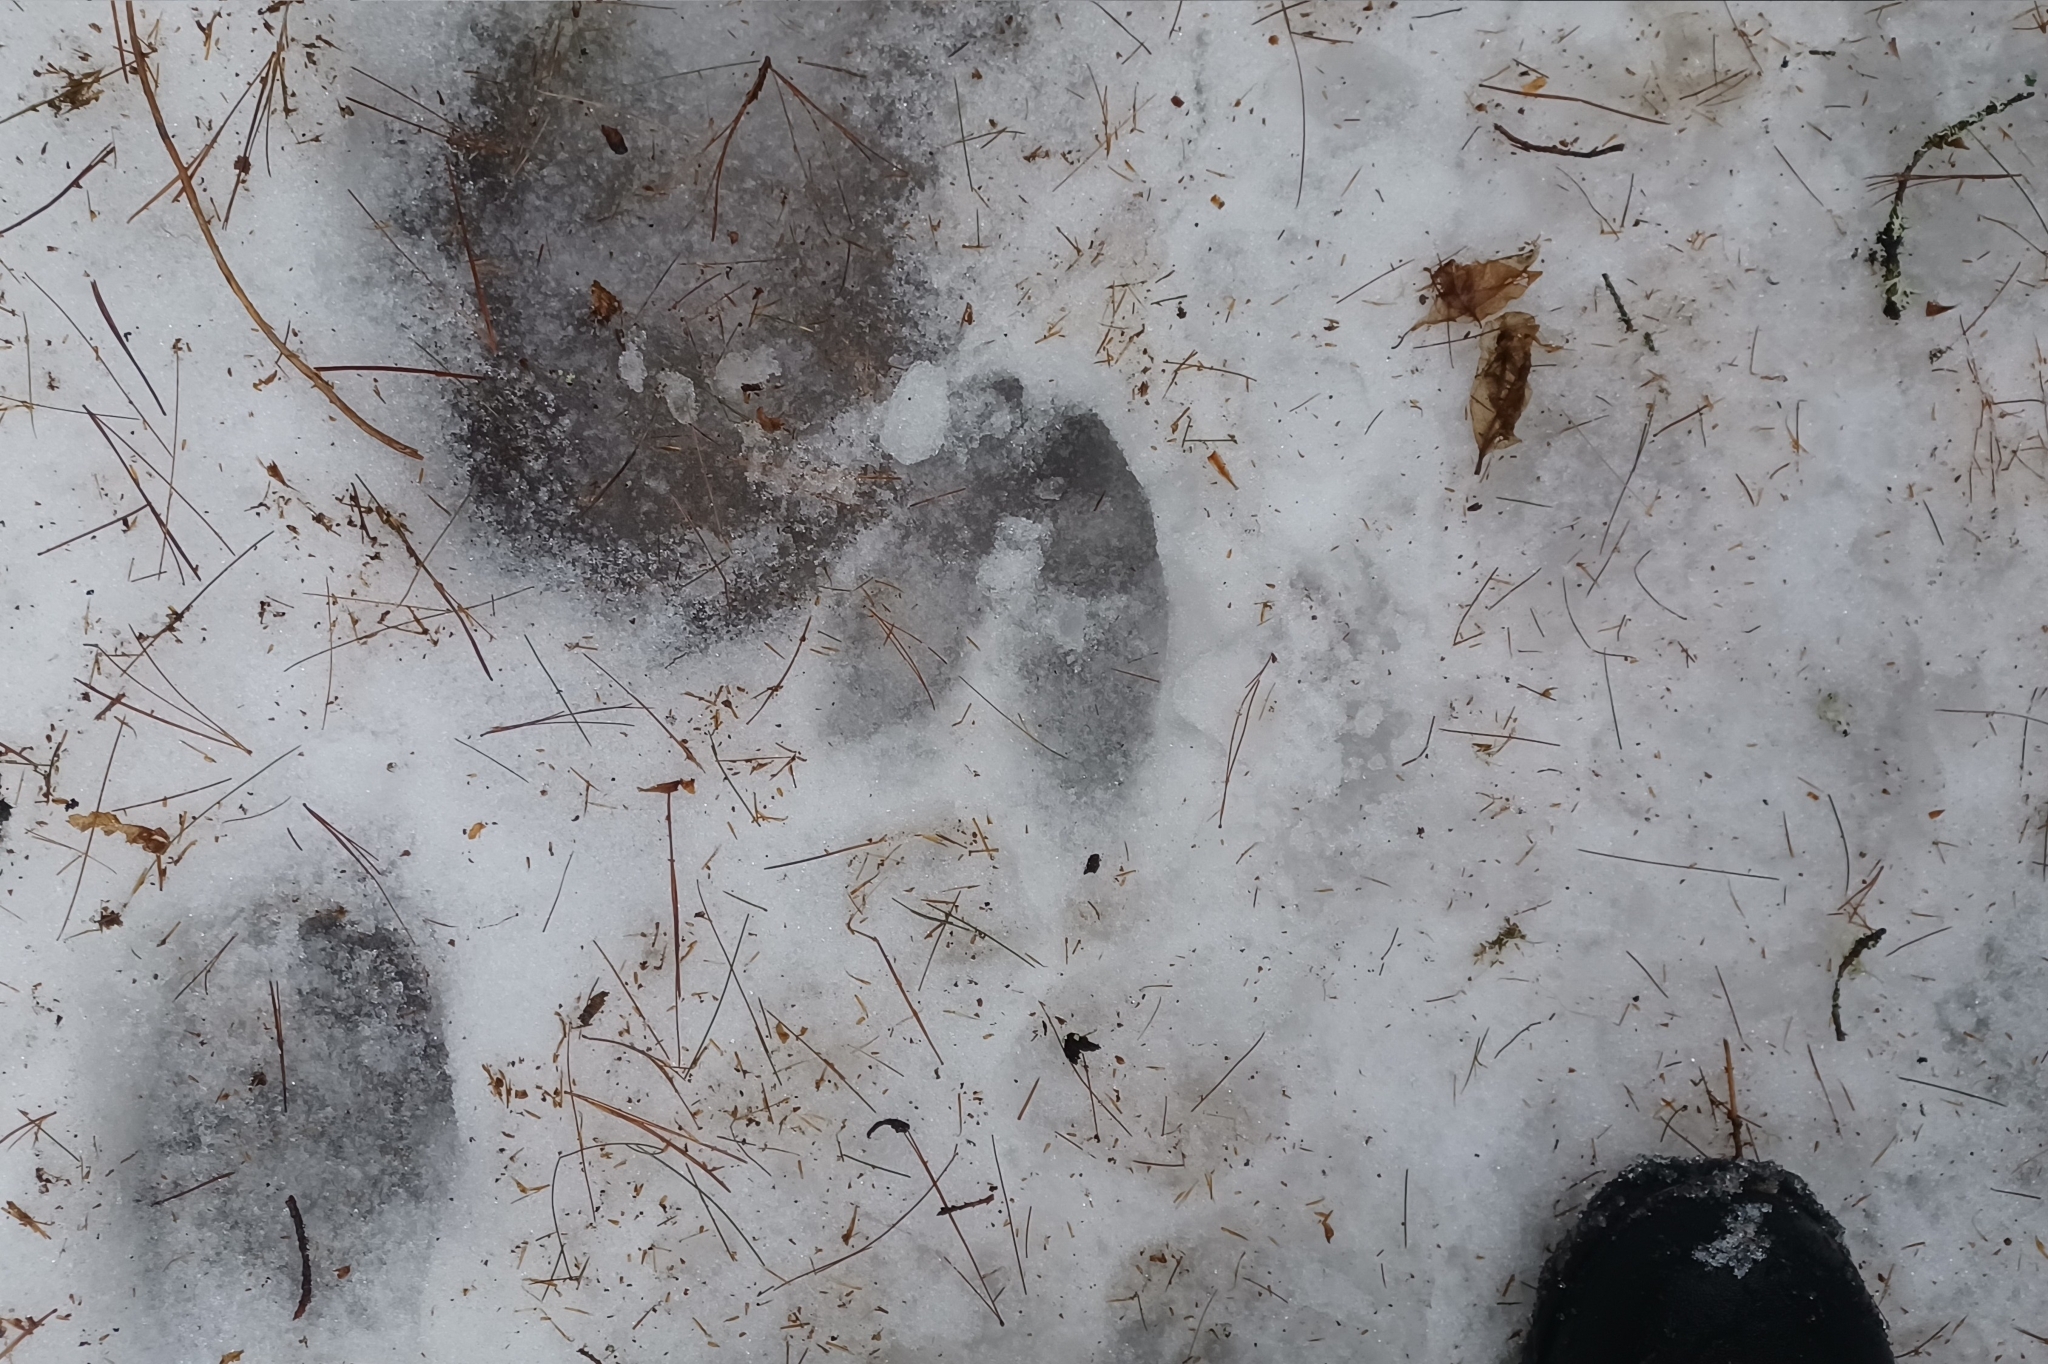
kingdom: Animalia
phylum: Chordata
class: Mammalia
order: Artiodactyla
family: Cervidae
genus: Alces
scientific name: Alces alces
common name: Moose
